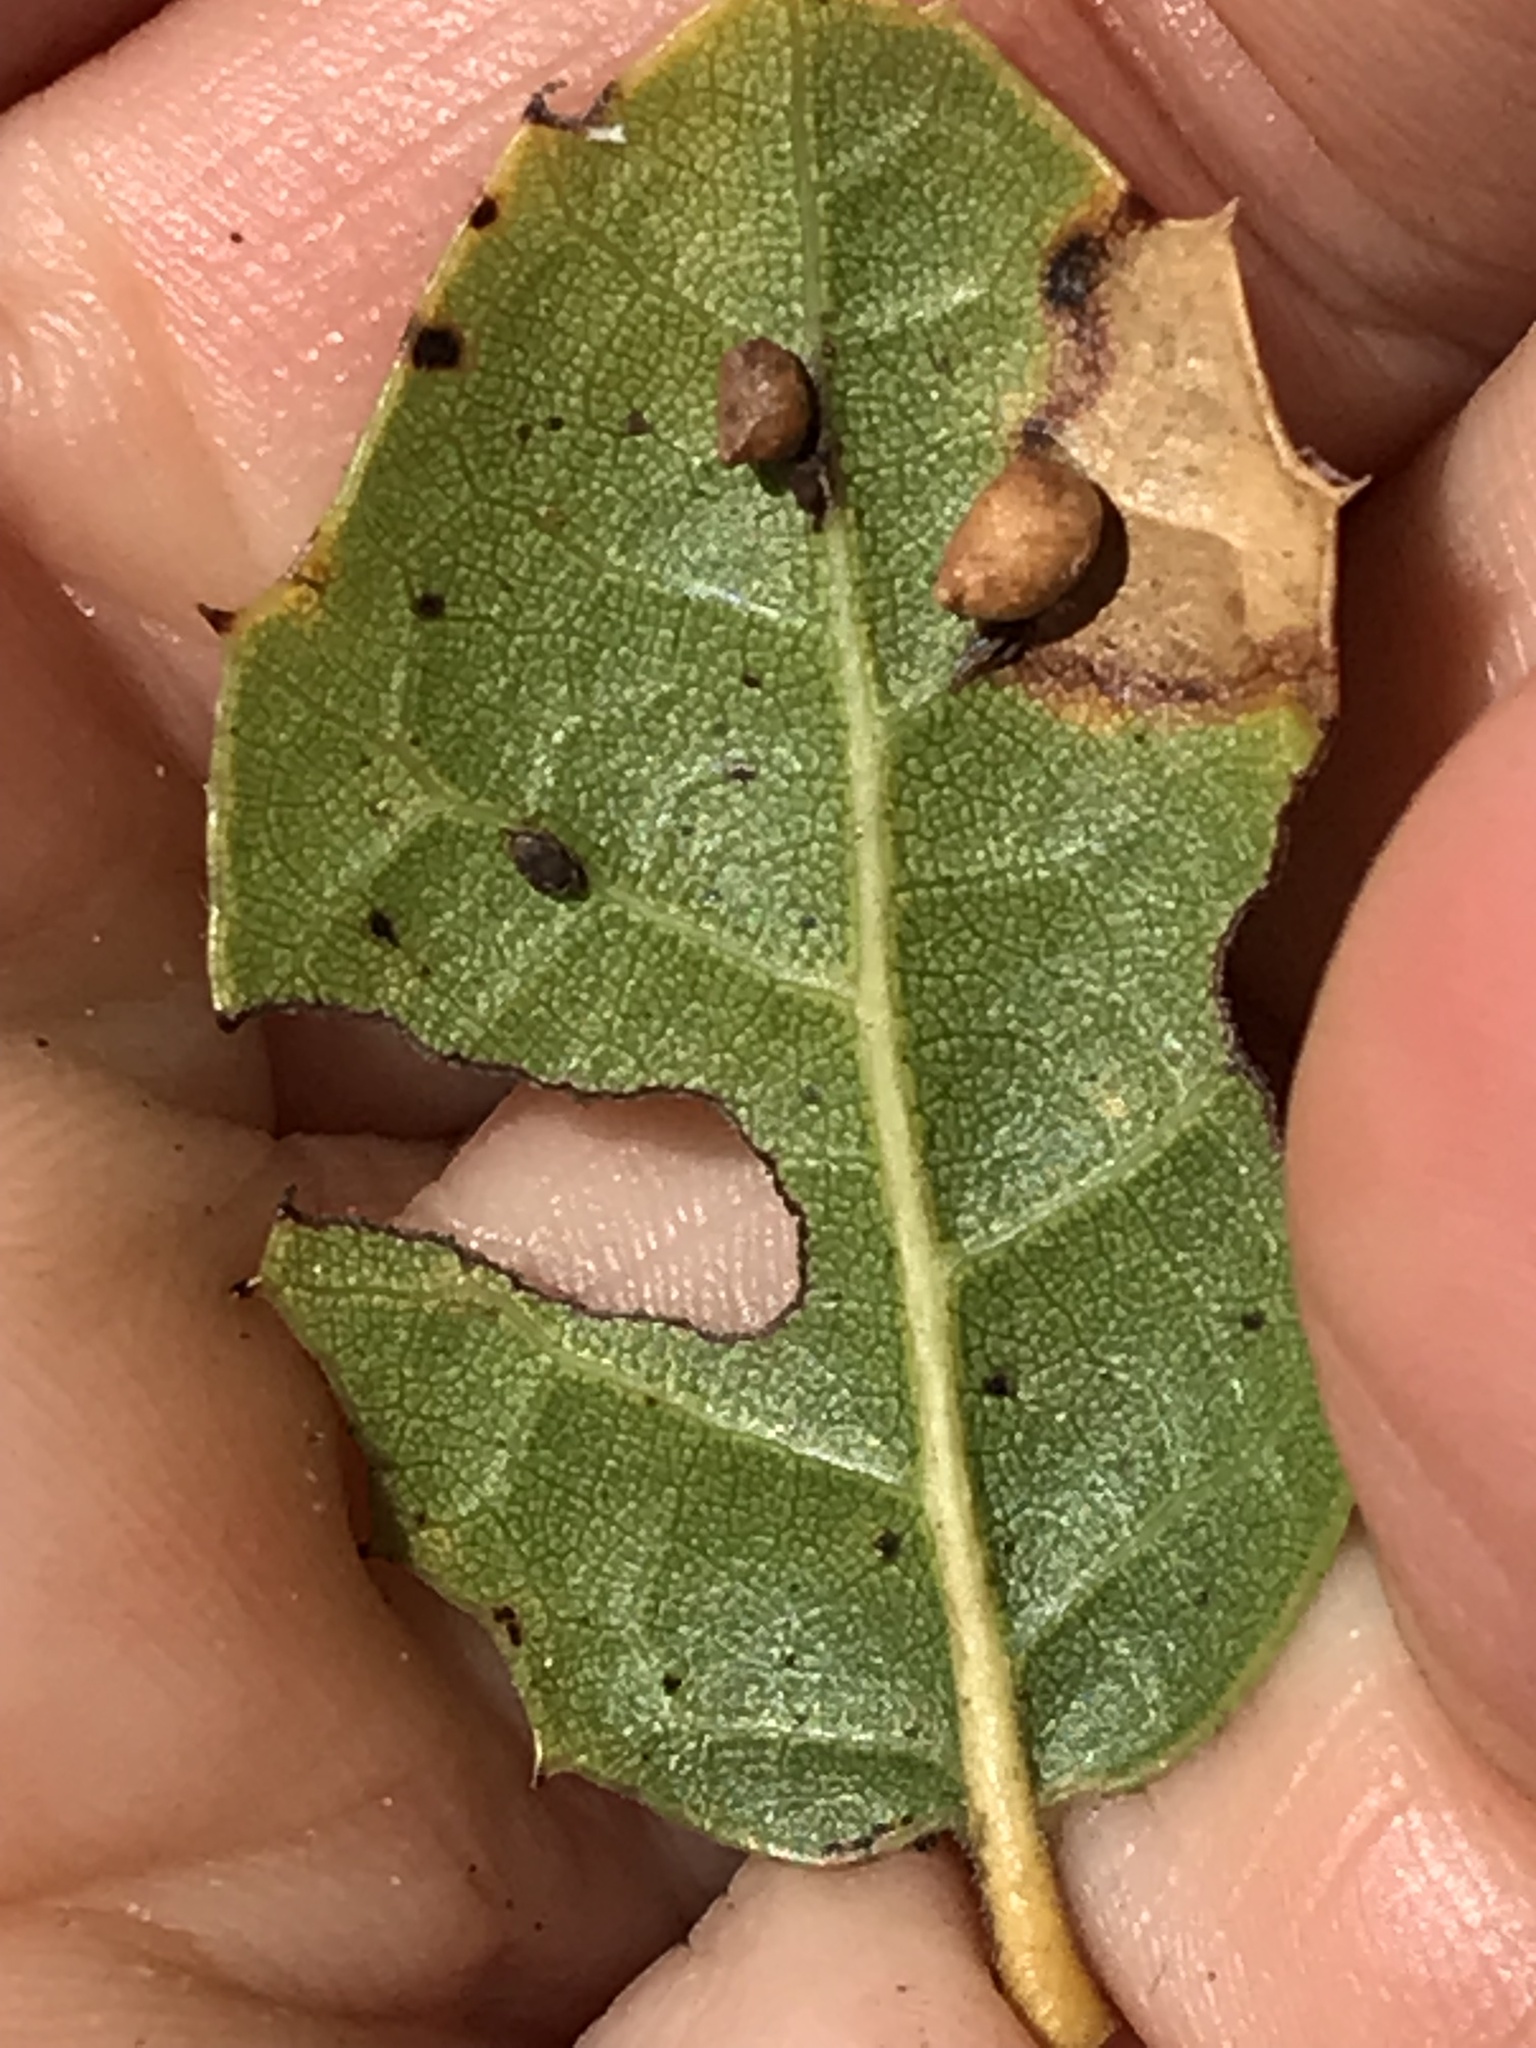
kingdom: Animalia
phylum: Arthropoda
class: Insecta
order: Hymenoptera
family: Cynipidae
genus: Dryocosmus
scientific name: Dryocosmus
